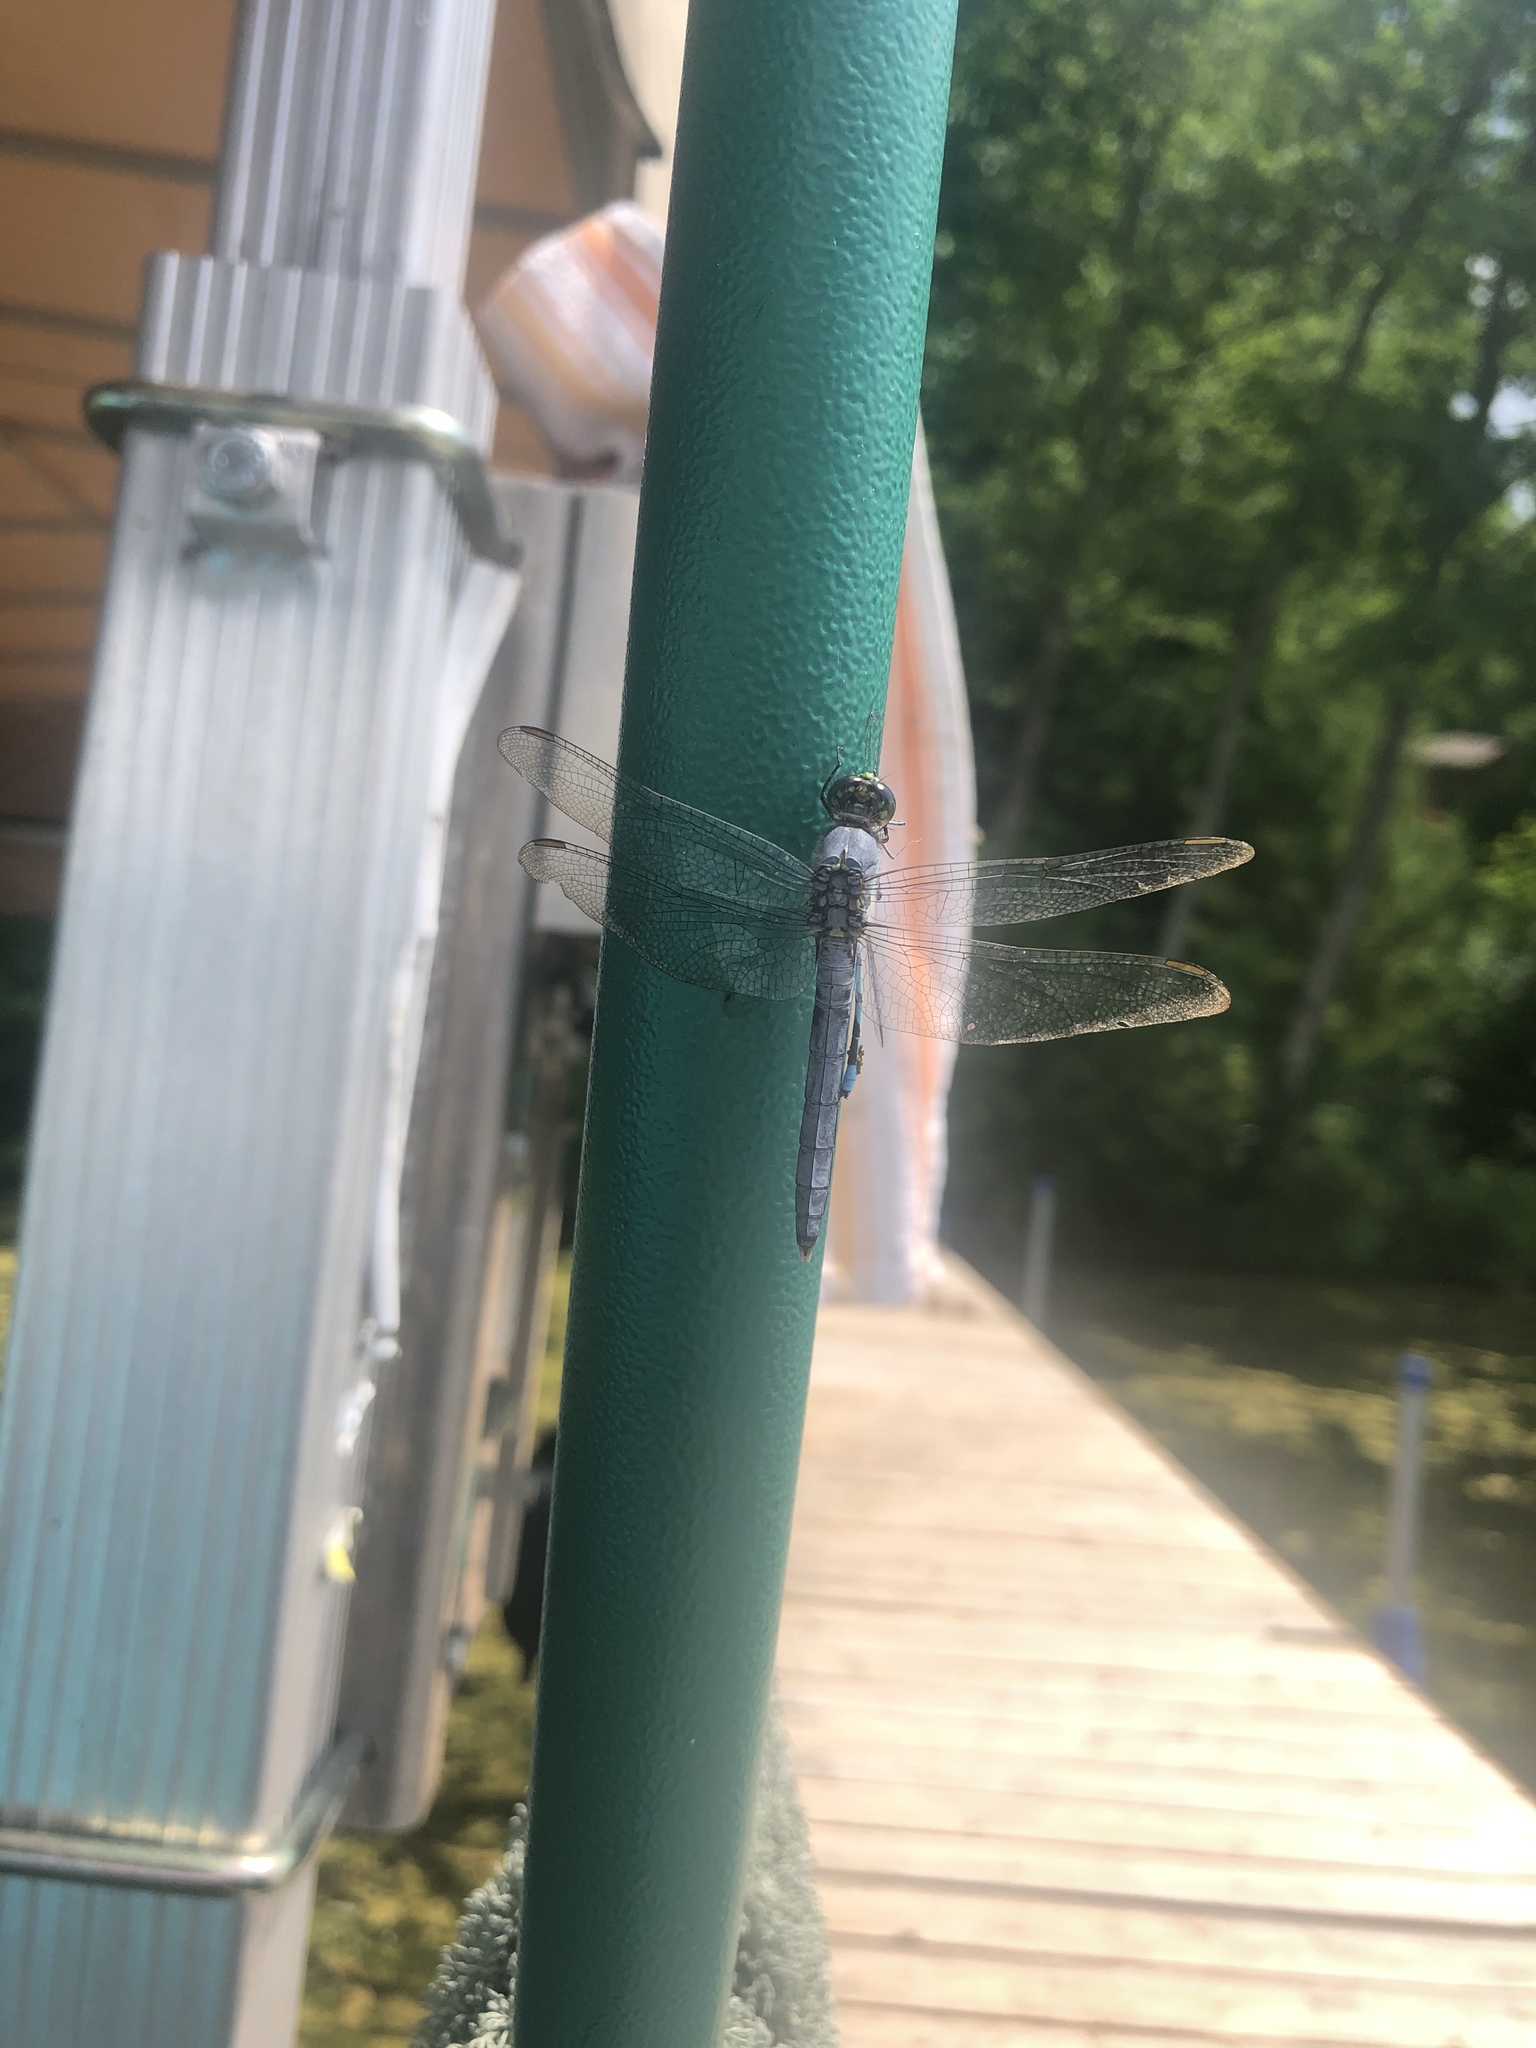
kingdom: Animalia
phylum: Arthropoda
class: Insecta
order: Odonata
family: Libellulidae
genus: Erythemis
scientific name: Erythemis simplicicollis
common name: Eastern pondhawk
